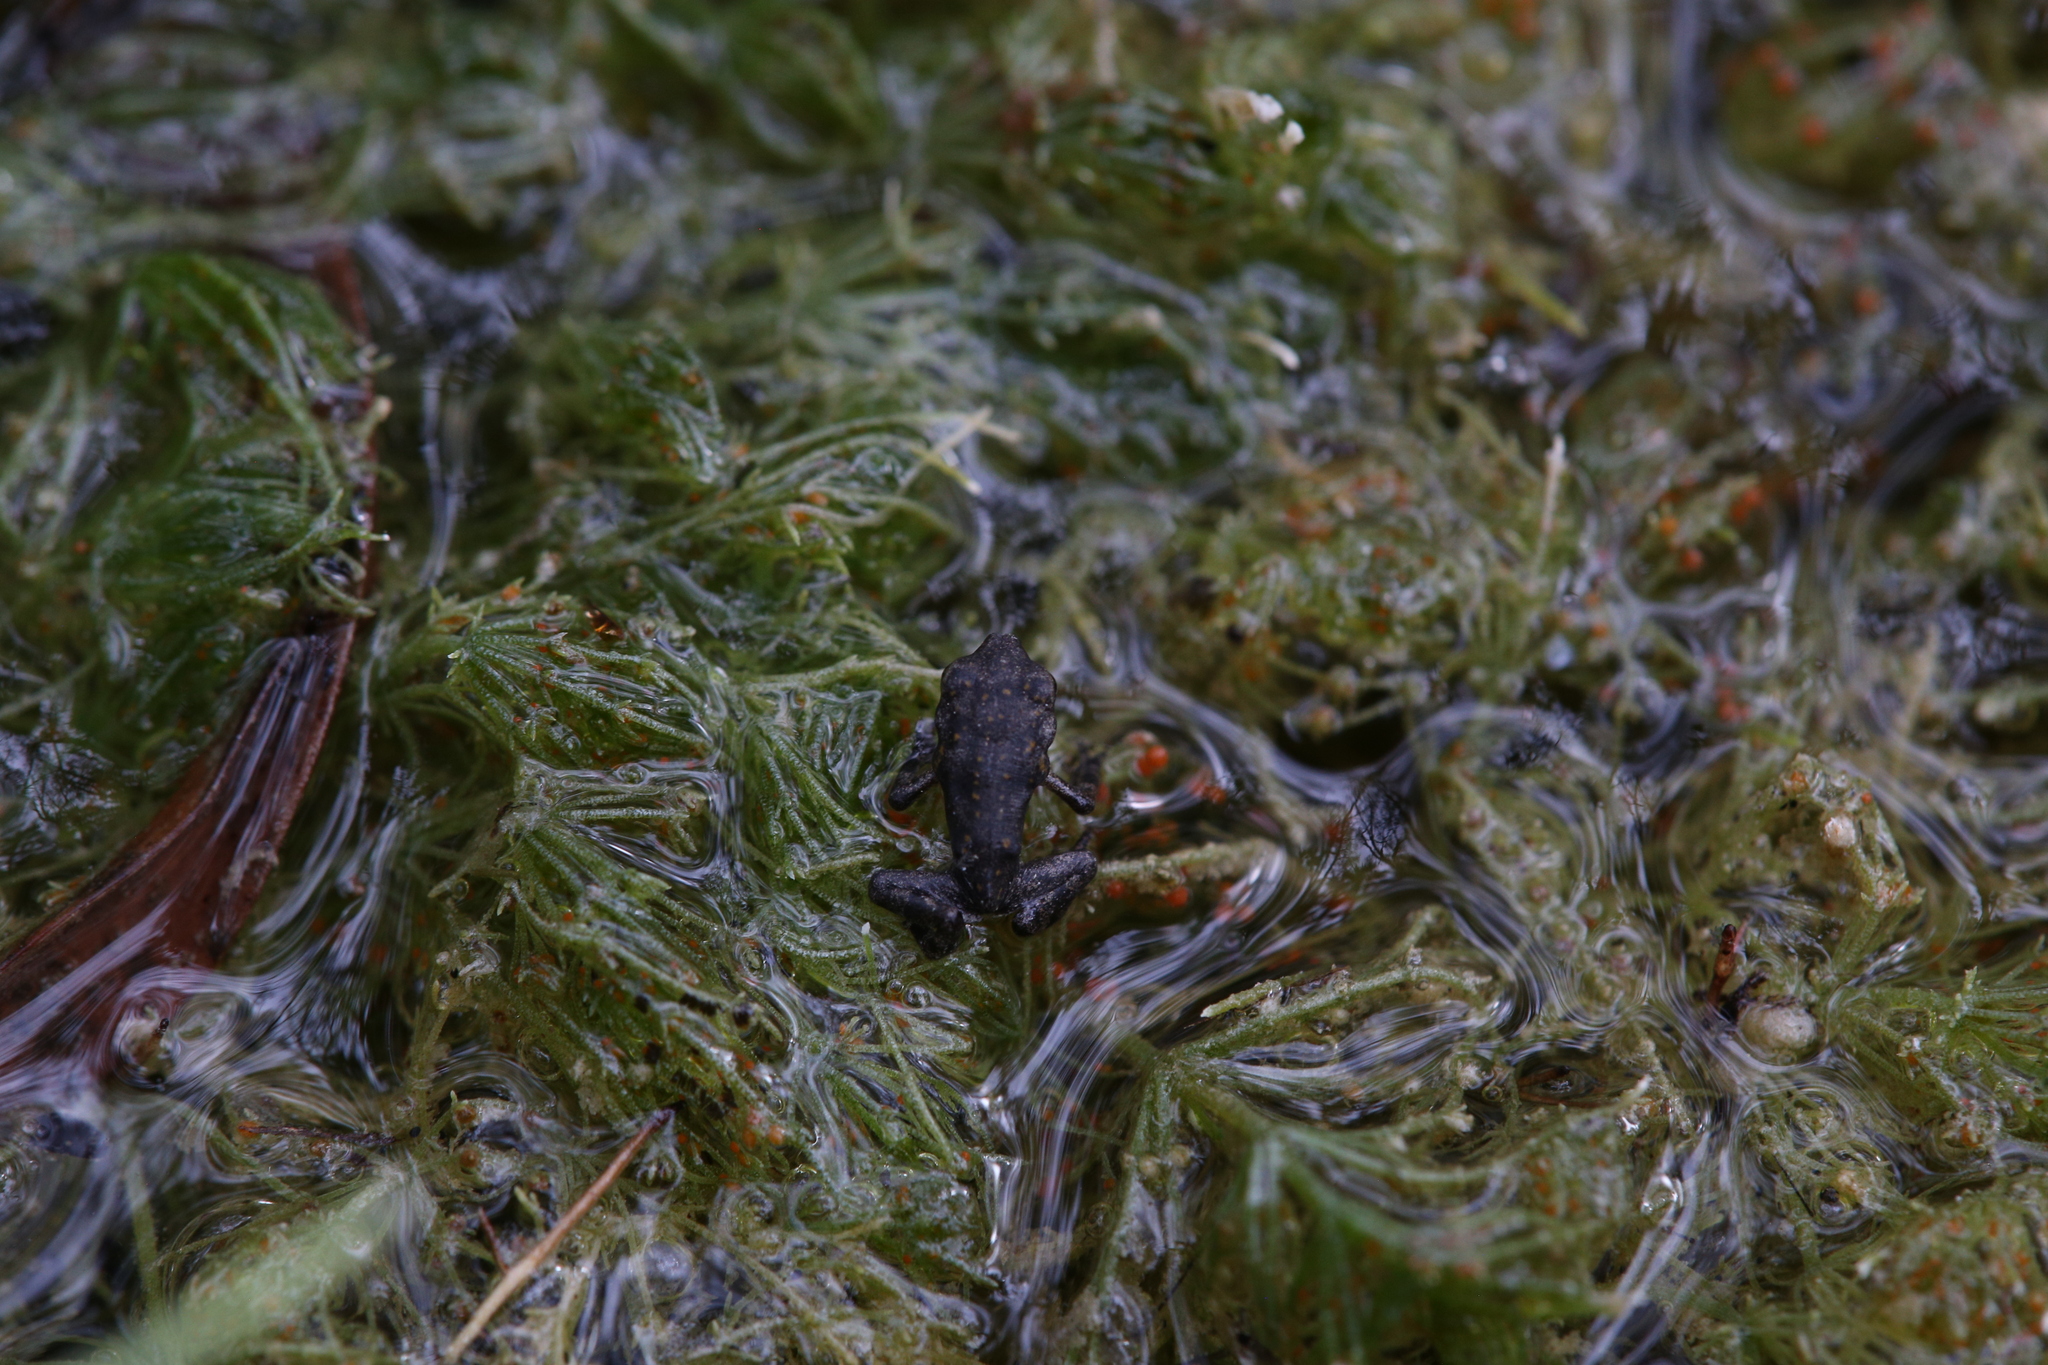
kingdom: Animalia
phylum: Chordata
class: Amphibia
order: Anura
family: Bufonidae
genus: Rhinella
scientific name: Rhinella marina
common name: Cane toad
